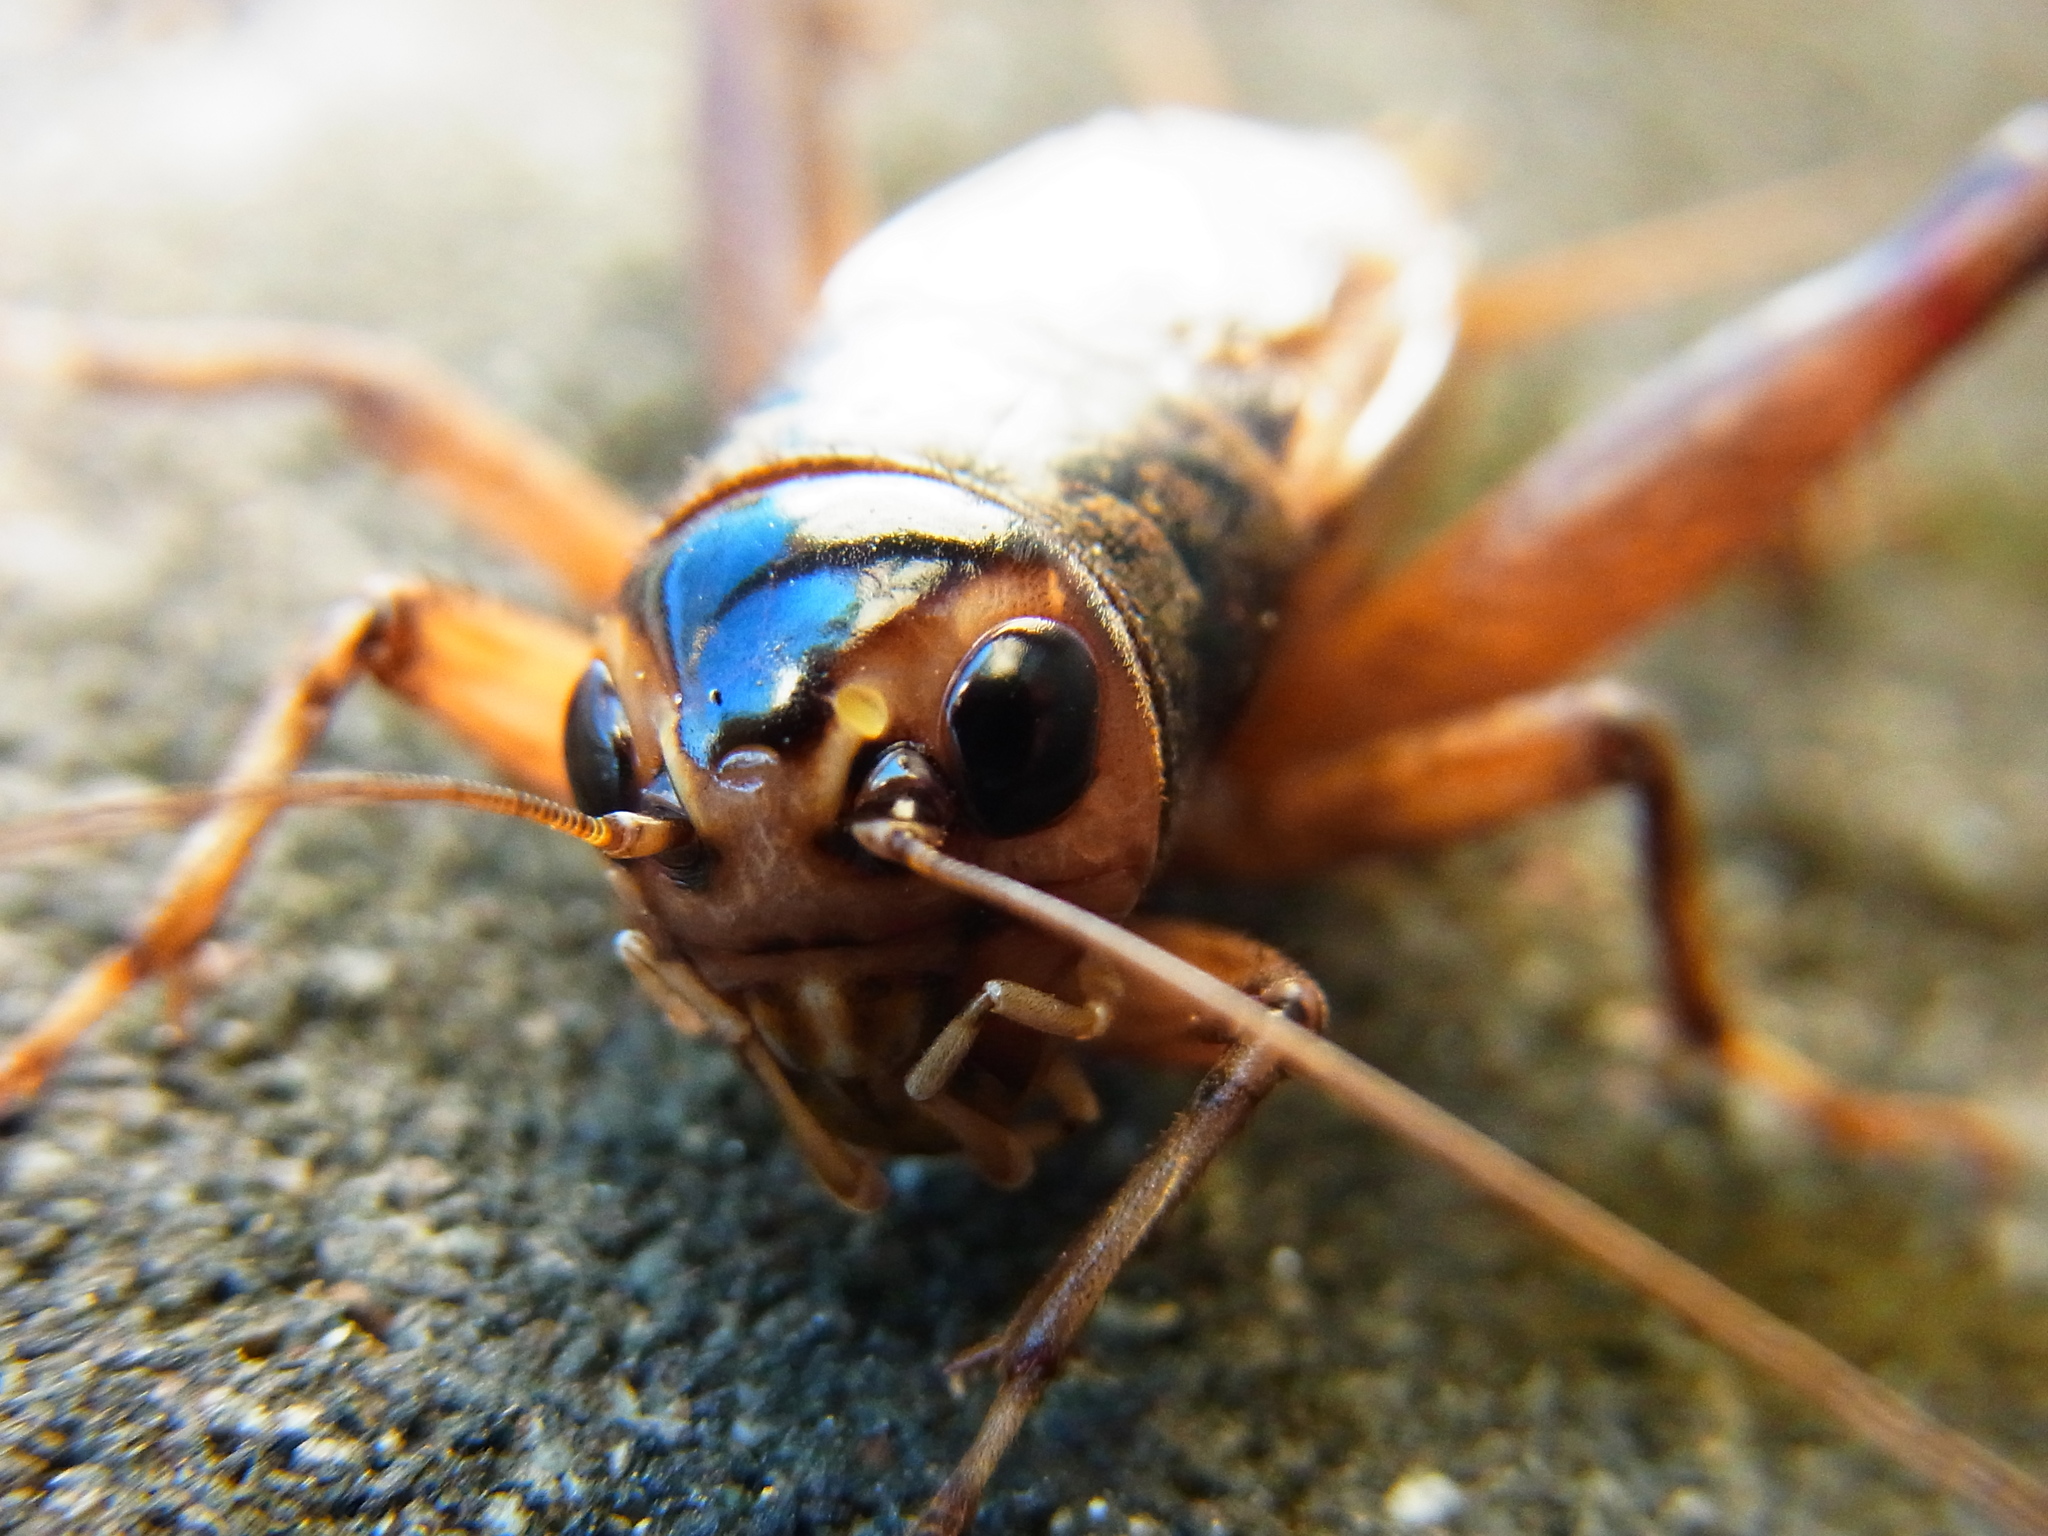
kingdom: Animalia
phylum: Arthropoda
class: Insecta
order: Orthoptera
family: Gryllidae
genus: Teleogryllus
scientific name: Teleogryllus occipitalis
